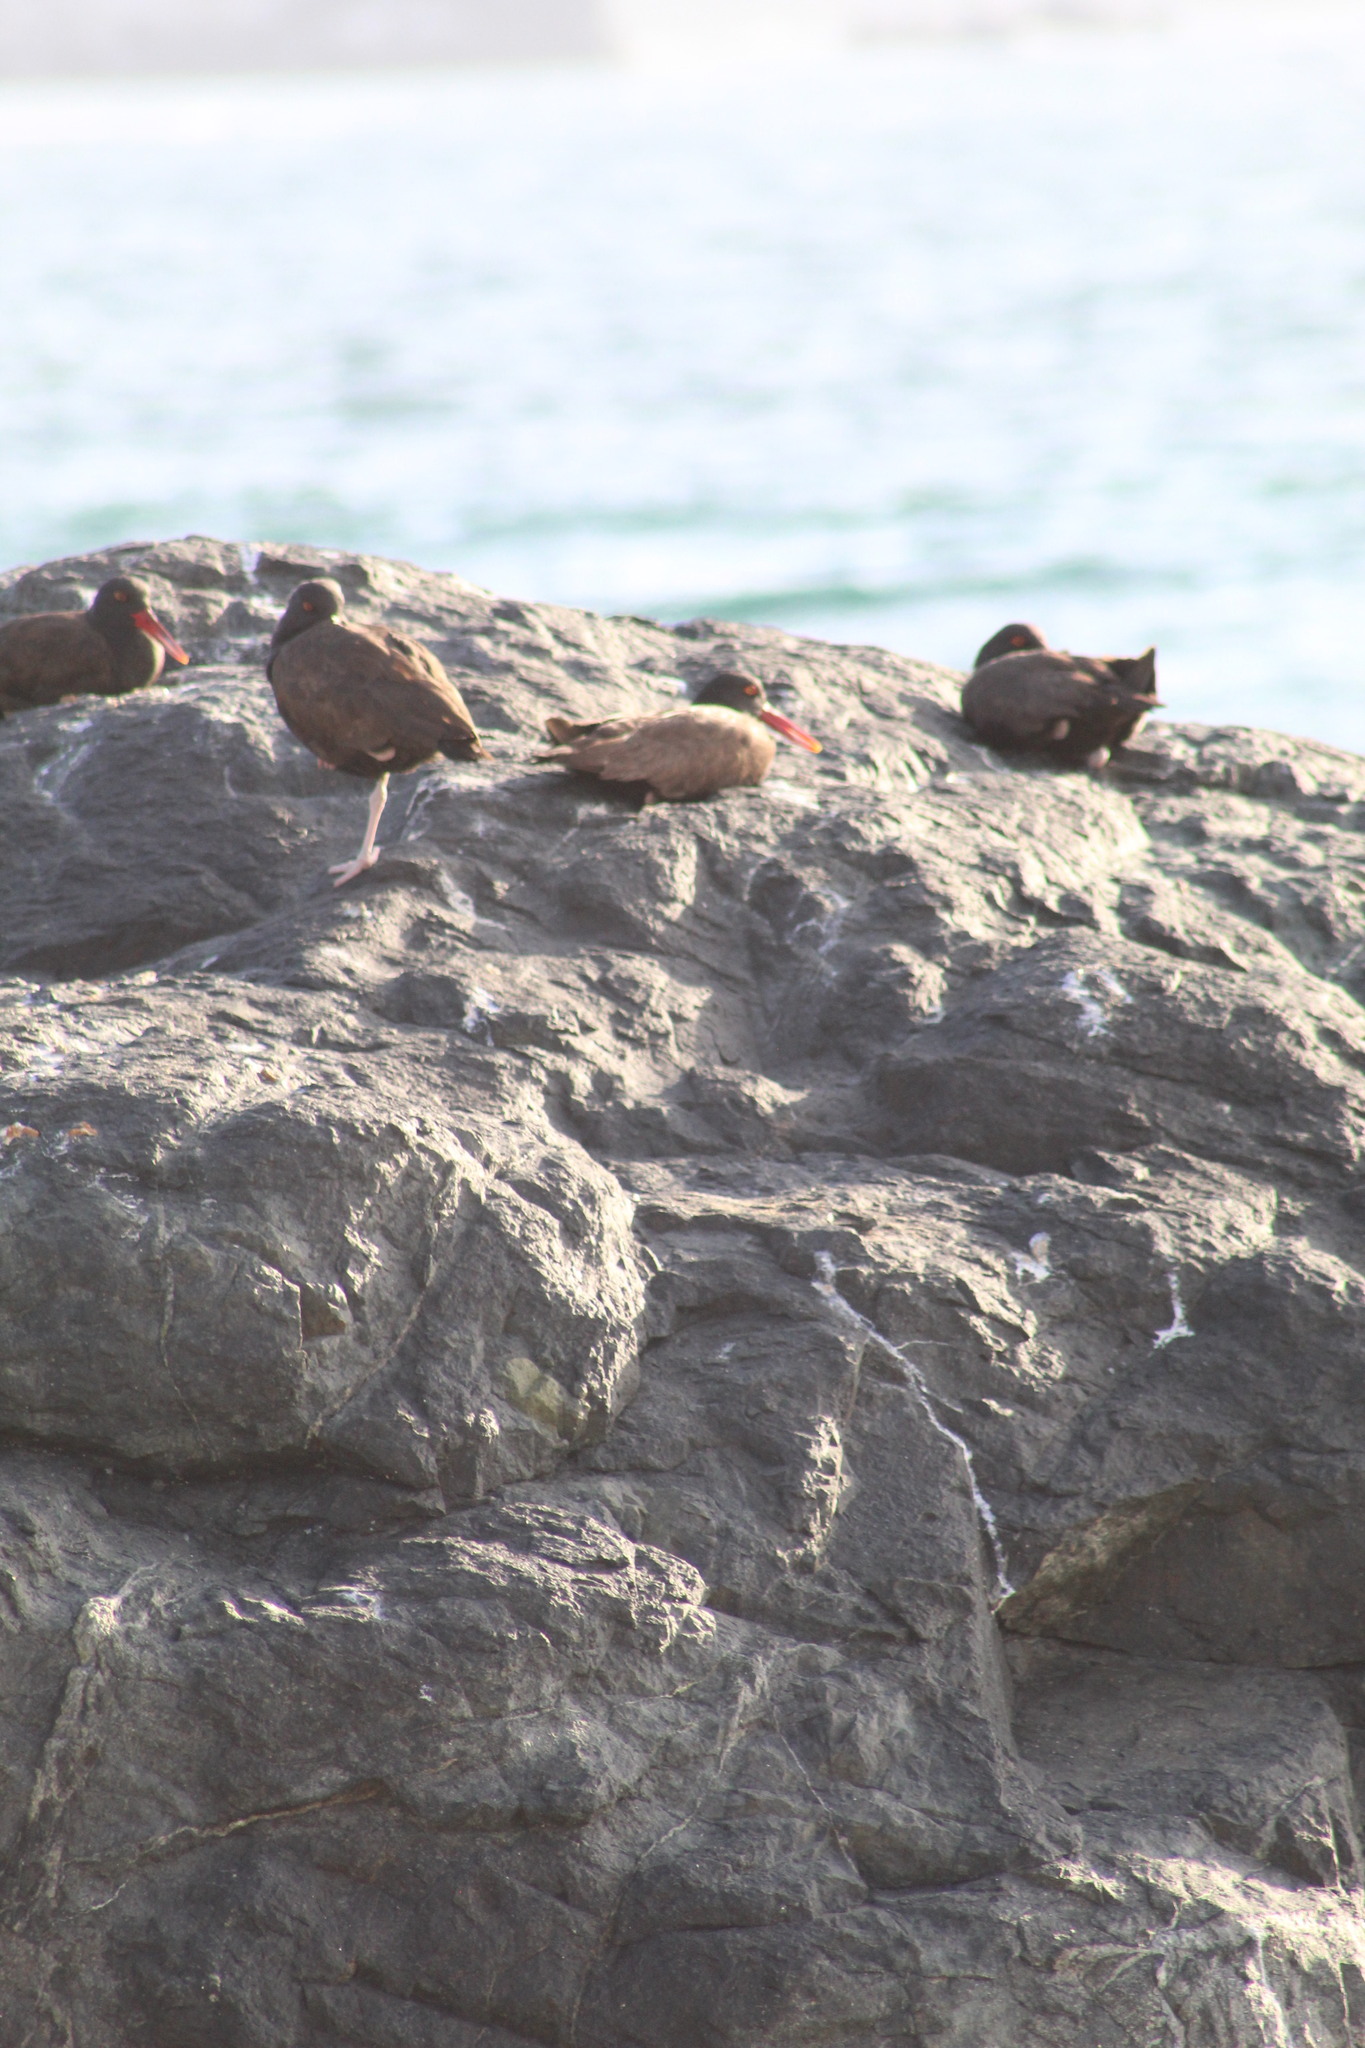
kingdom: Animalia
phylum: Chordata
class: Aves
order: Charadriiformes
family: Haematopodidae
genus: Haematopus
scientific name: Haematopus ater
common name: Blackish oystercatcher
